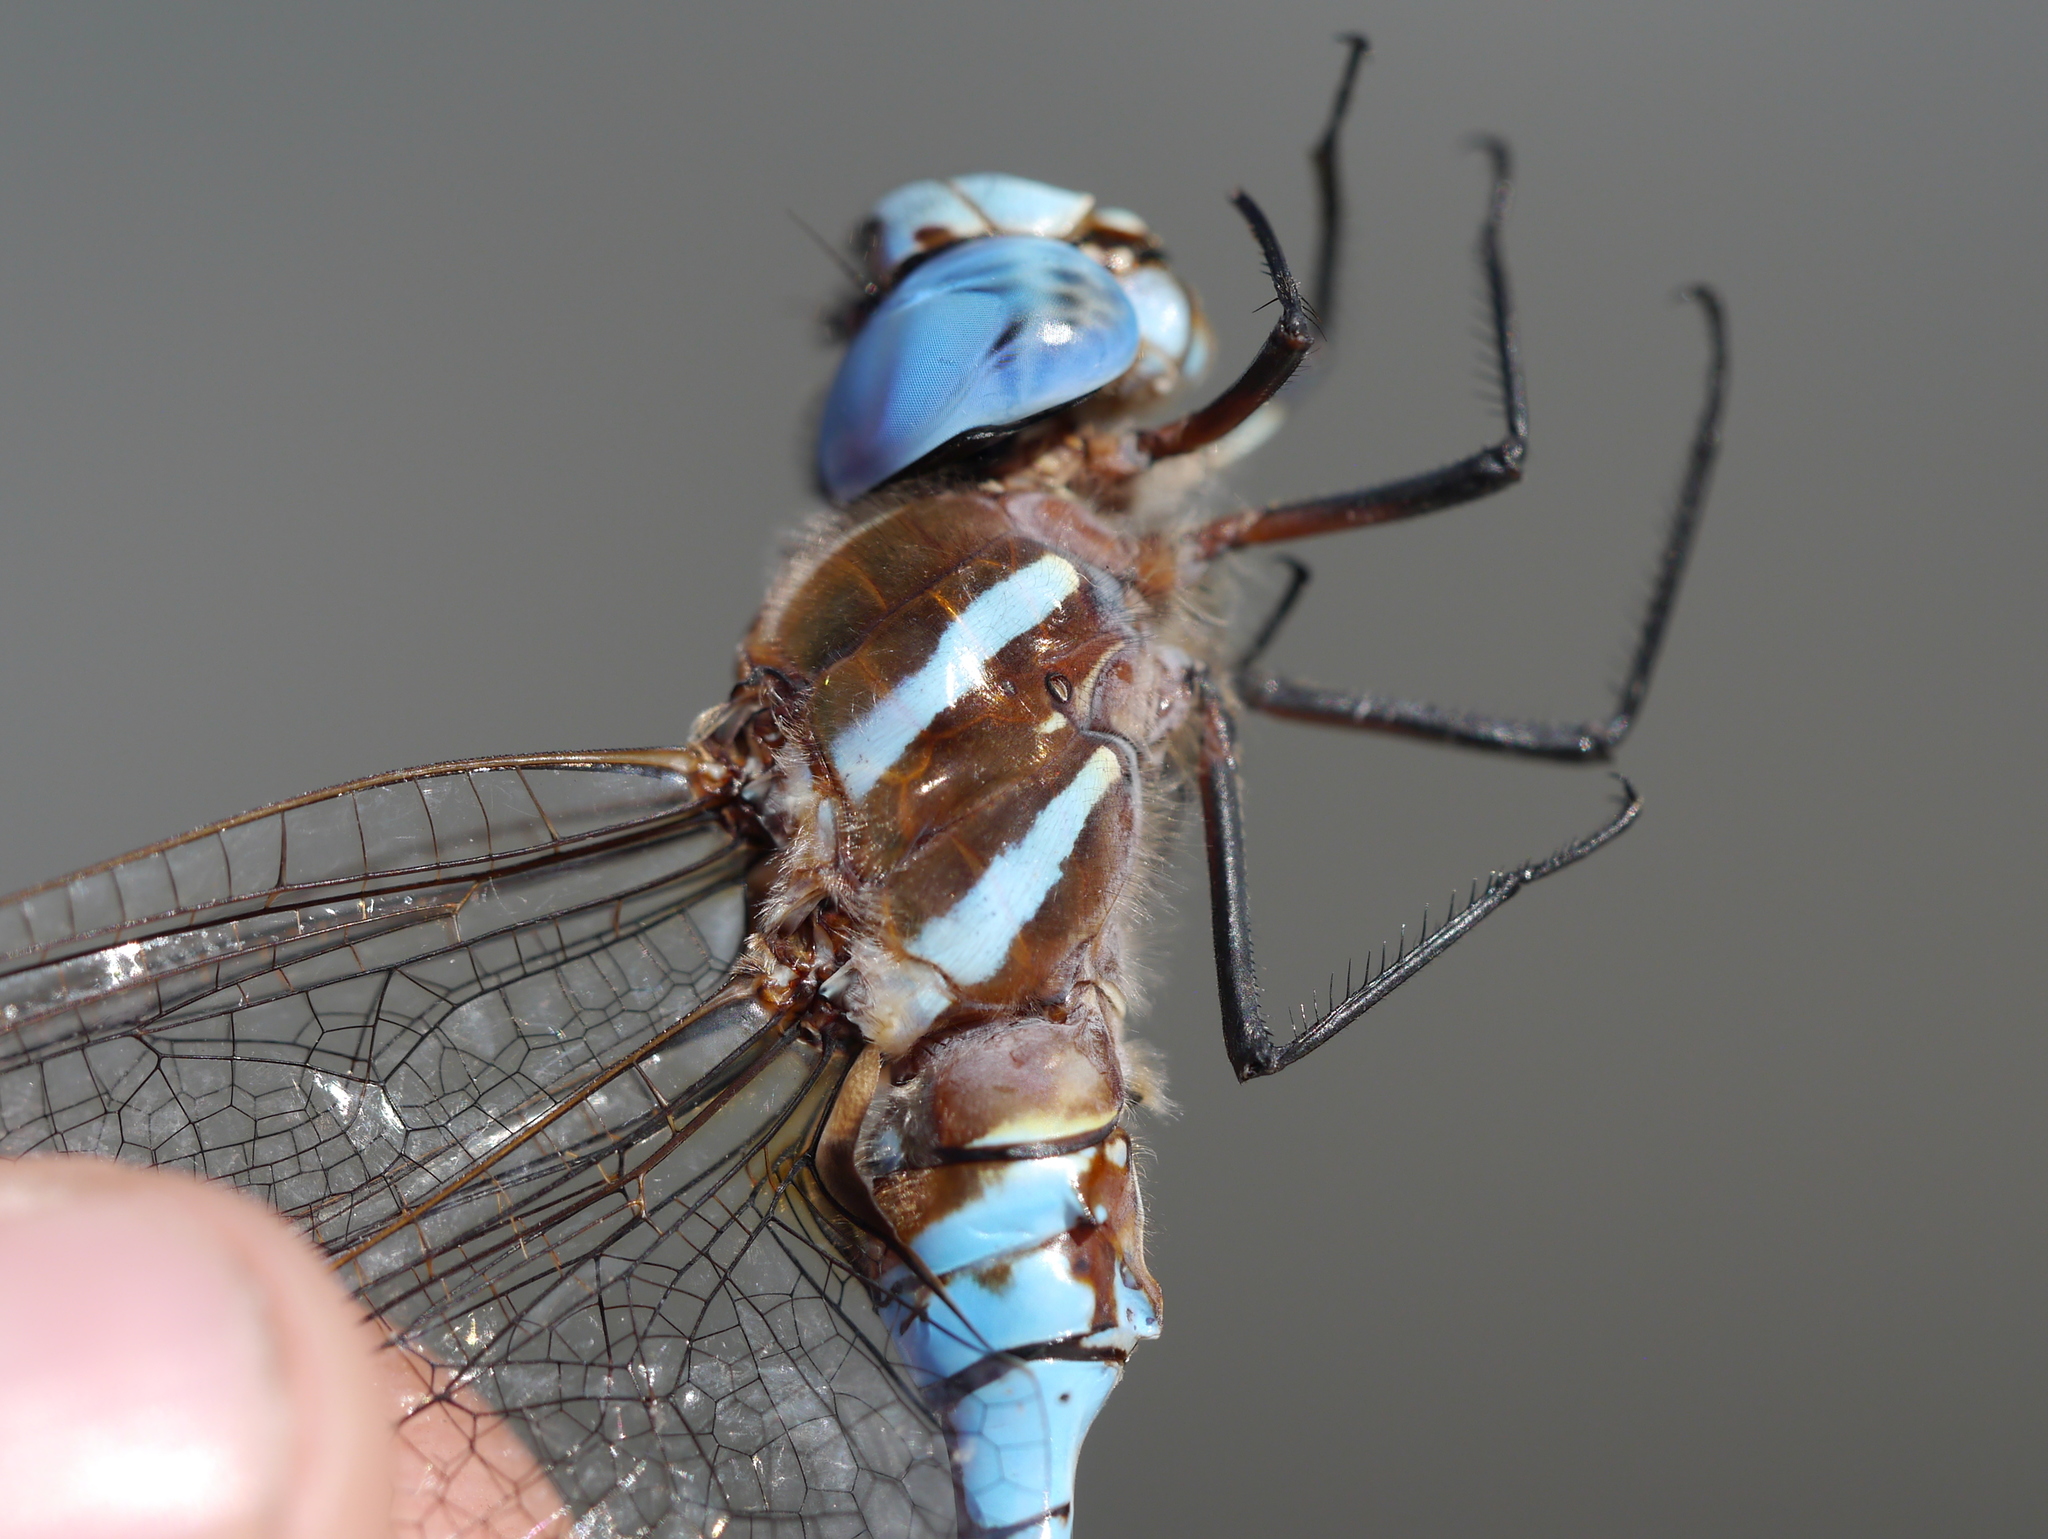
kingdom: Animalia
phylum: Arthropoda
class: Insecta
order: Odonata
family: Aeshnidae
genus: Rhionaeschna
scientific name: Rhionaeschna multicolor
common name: Blue-eyed darner
